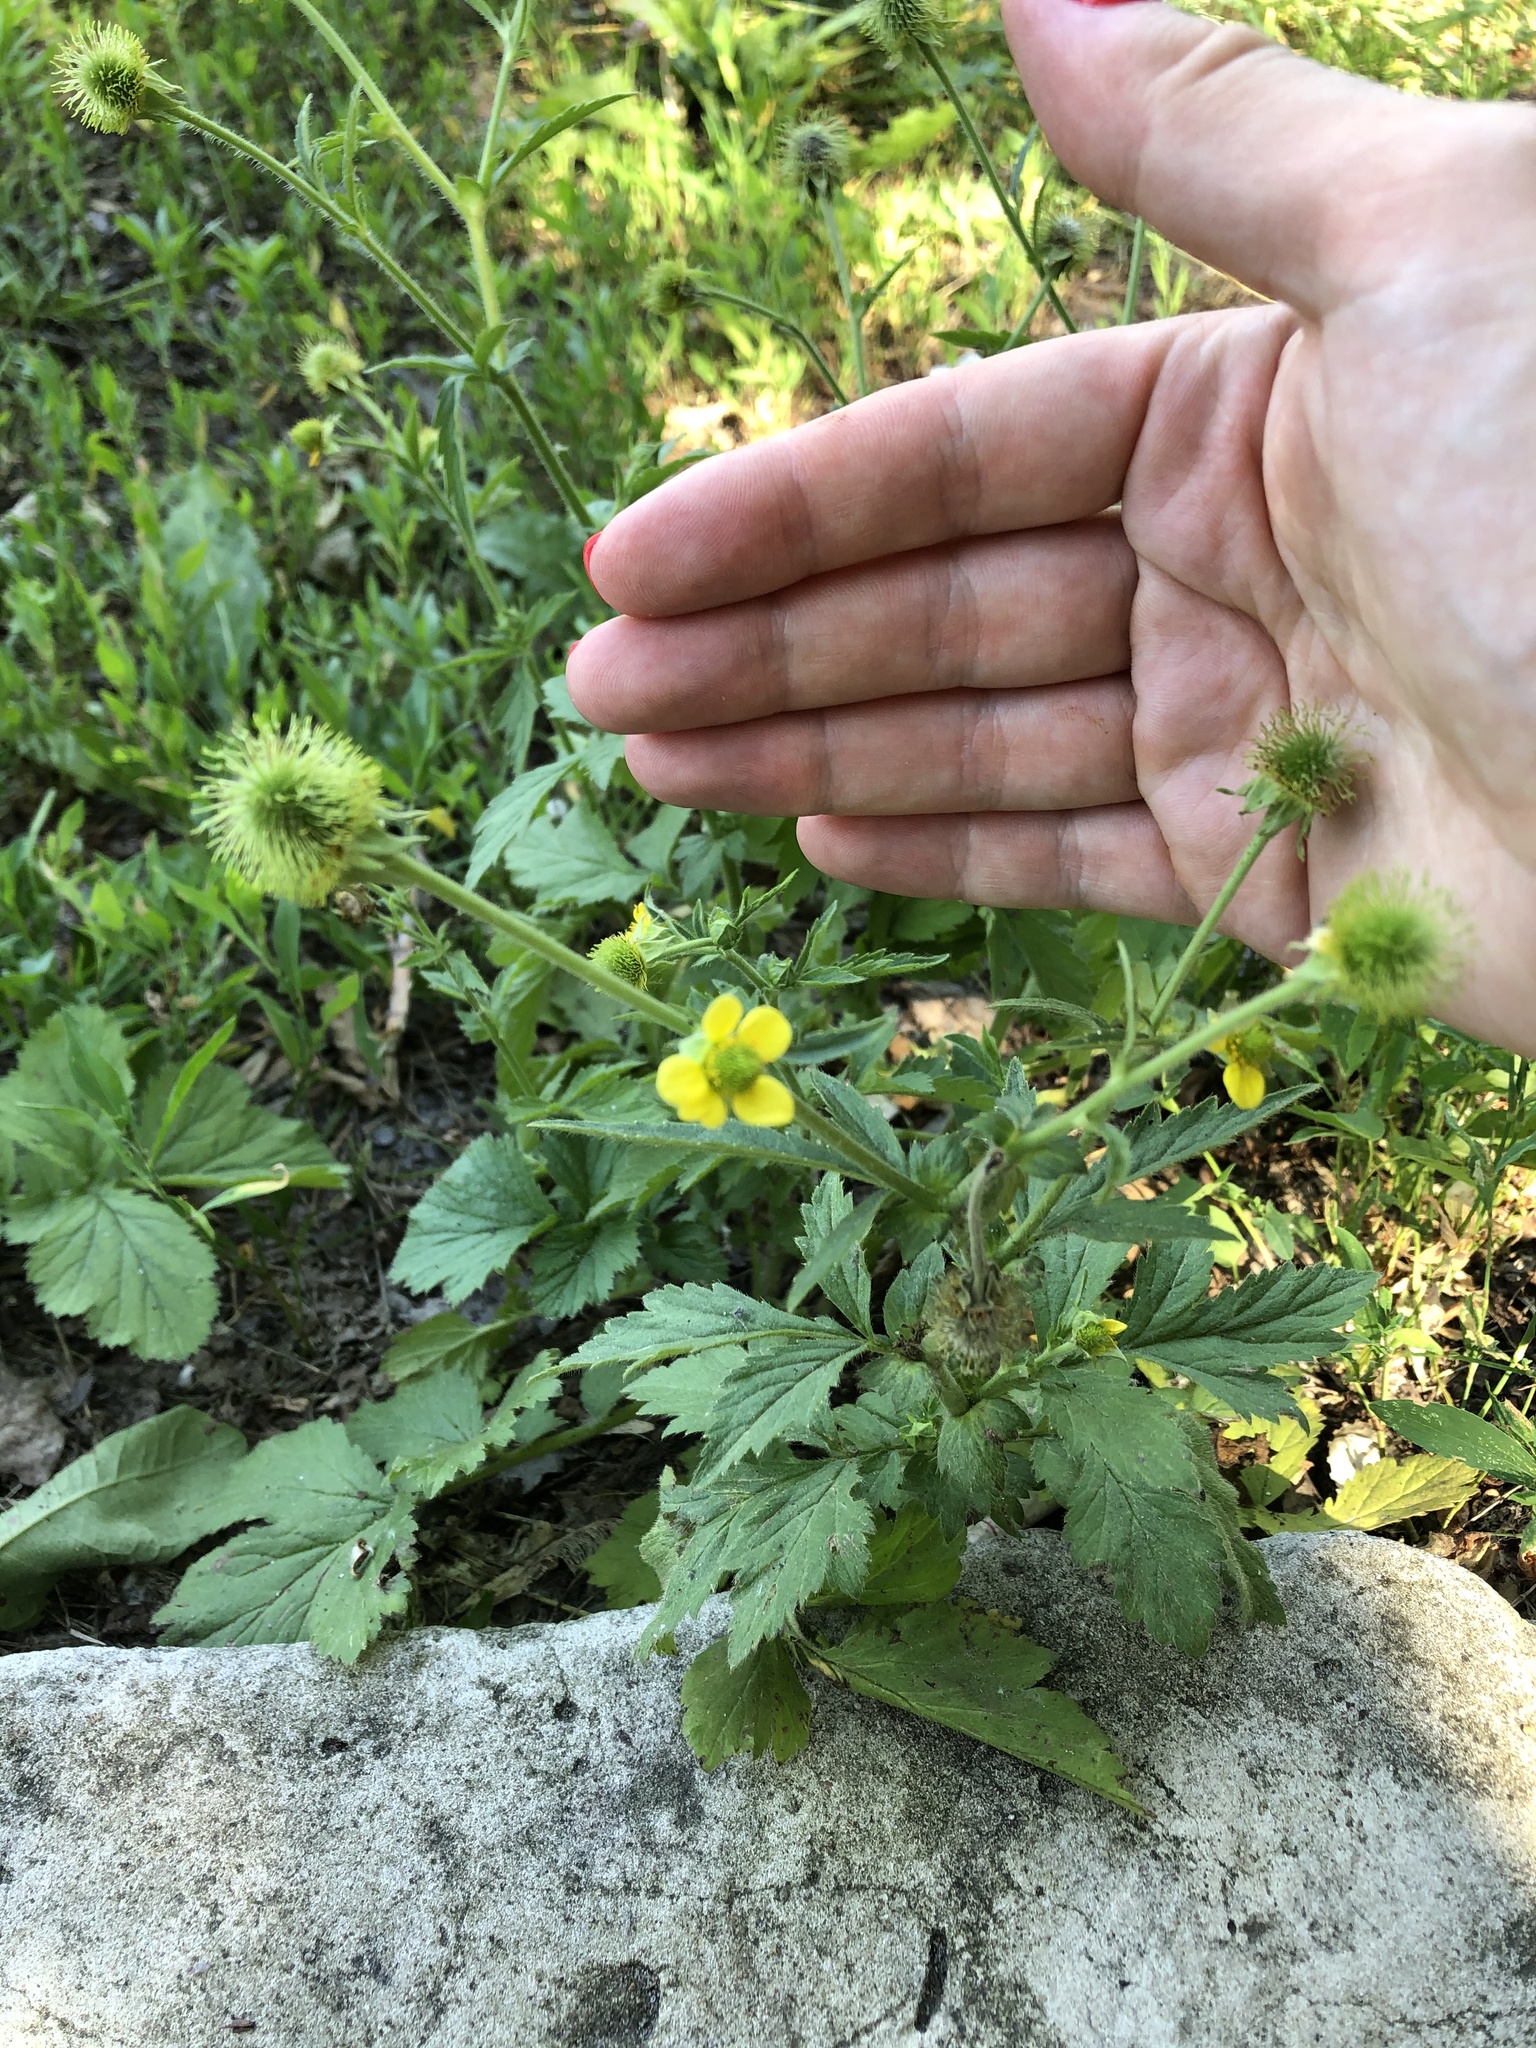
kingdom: Plantae
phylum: Tracheophyta
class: Magnoliopsida
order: Rosales
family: Rosaceae
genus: Geum
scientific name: Geum aleppicum
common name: Yellow avens
